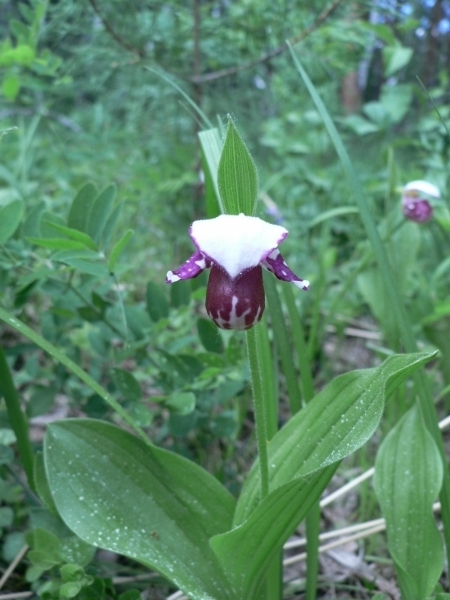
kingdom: Plantae
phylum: Tracheophyta
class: Liliopsida
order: Asparagales
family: Orchidaceae
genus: Cypripedium
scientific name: Cypripedium guttatum
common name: Pink lady slipper
